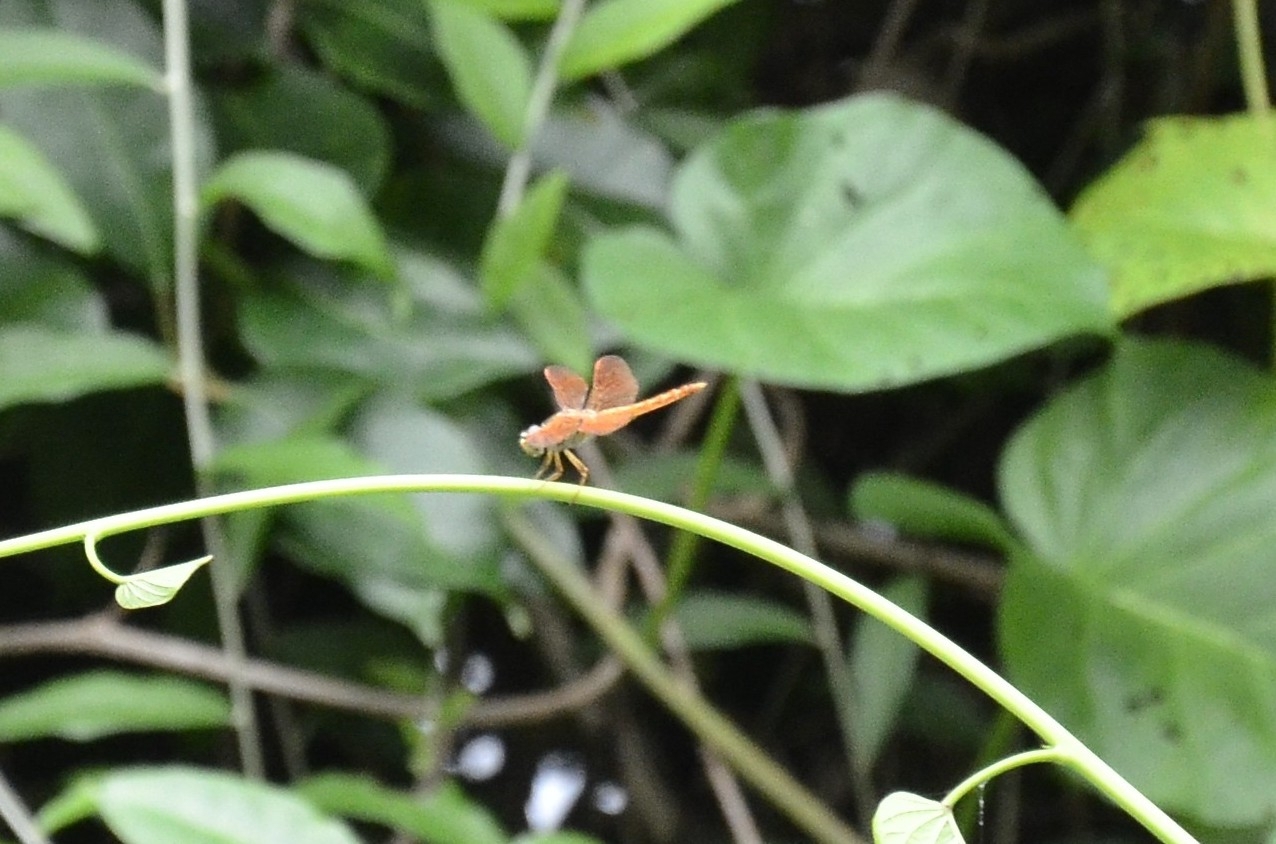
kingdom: Animalia
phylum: Arthropoda
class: Insecta
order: Odonata
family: Libellulidae
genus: Brachythemis
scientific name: Brachythemis contaminata
